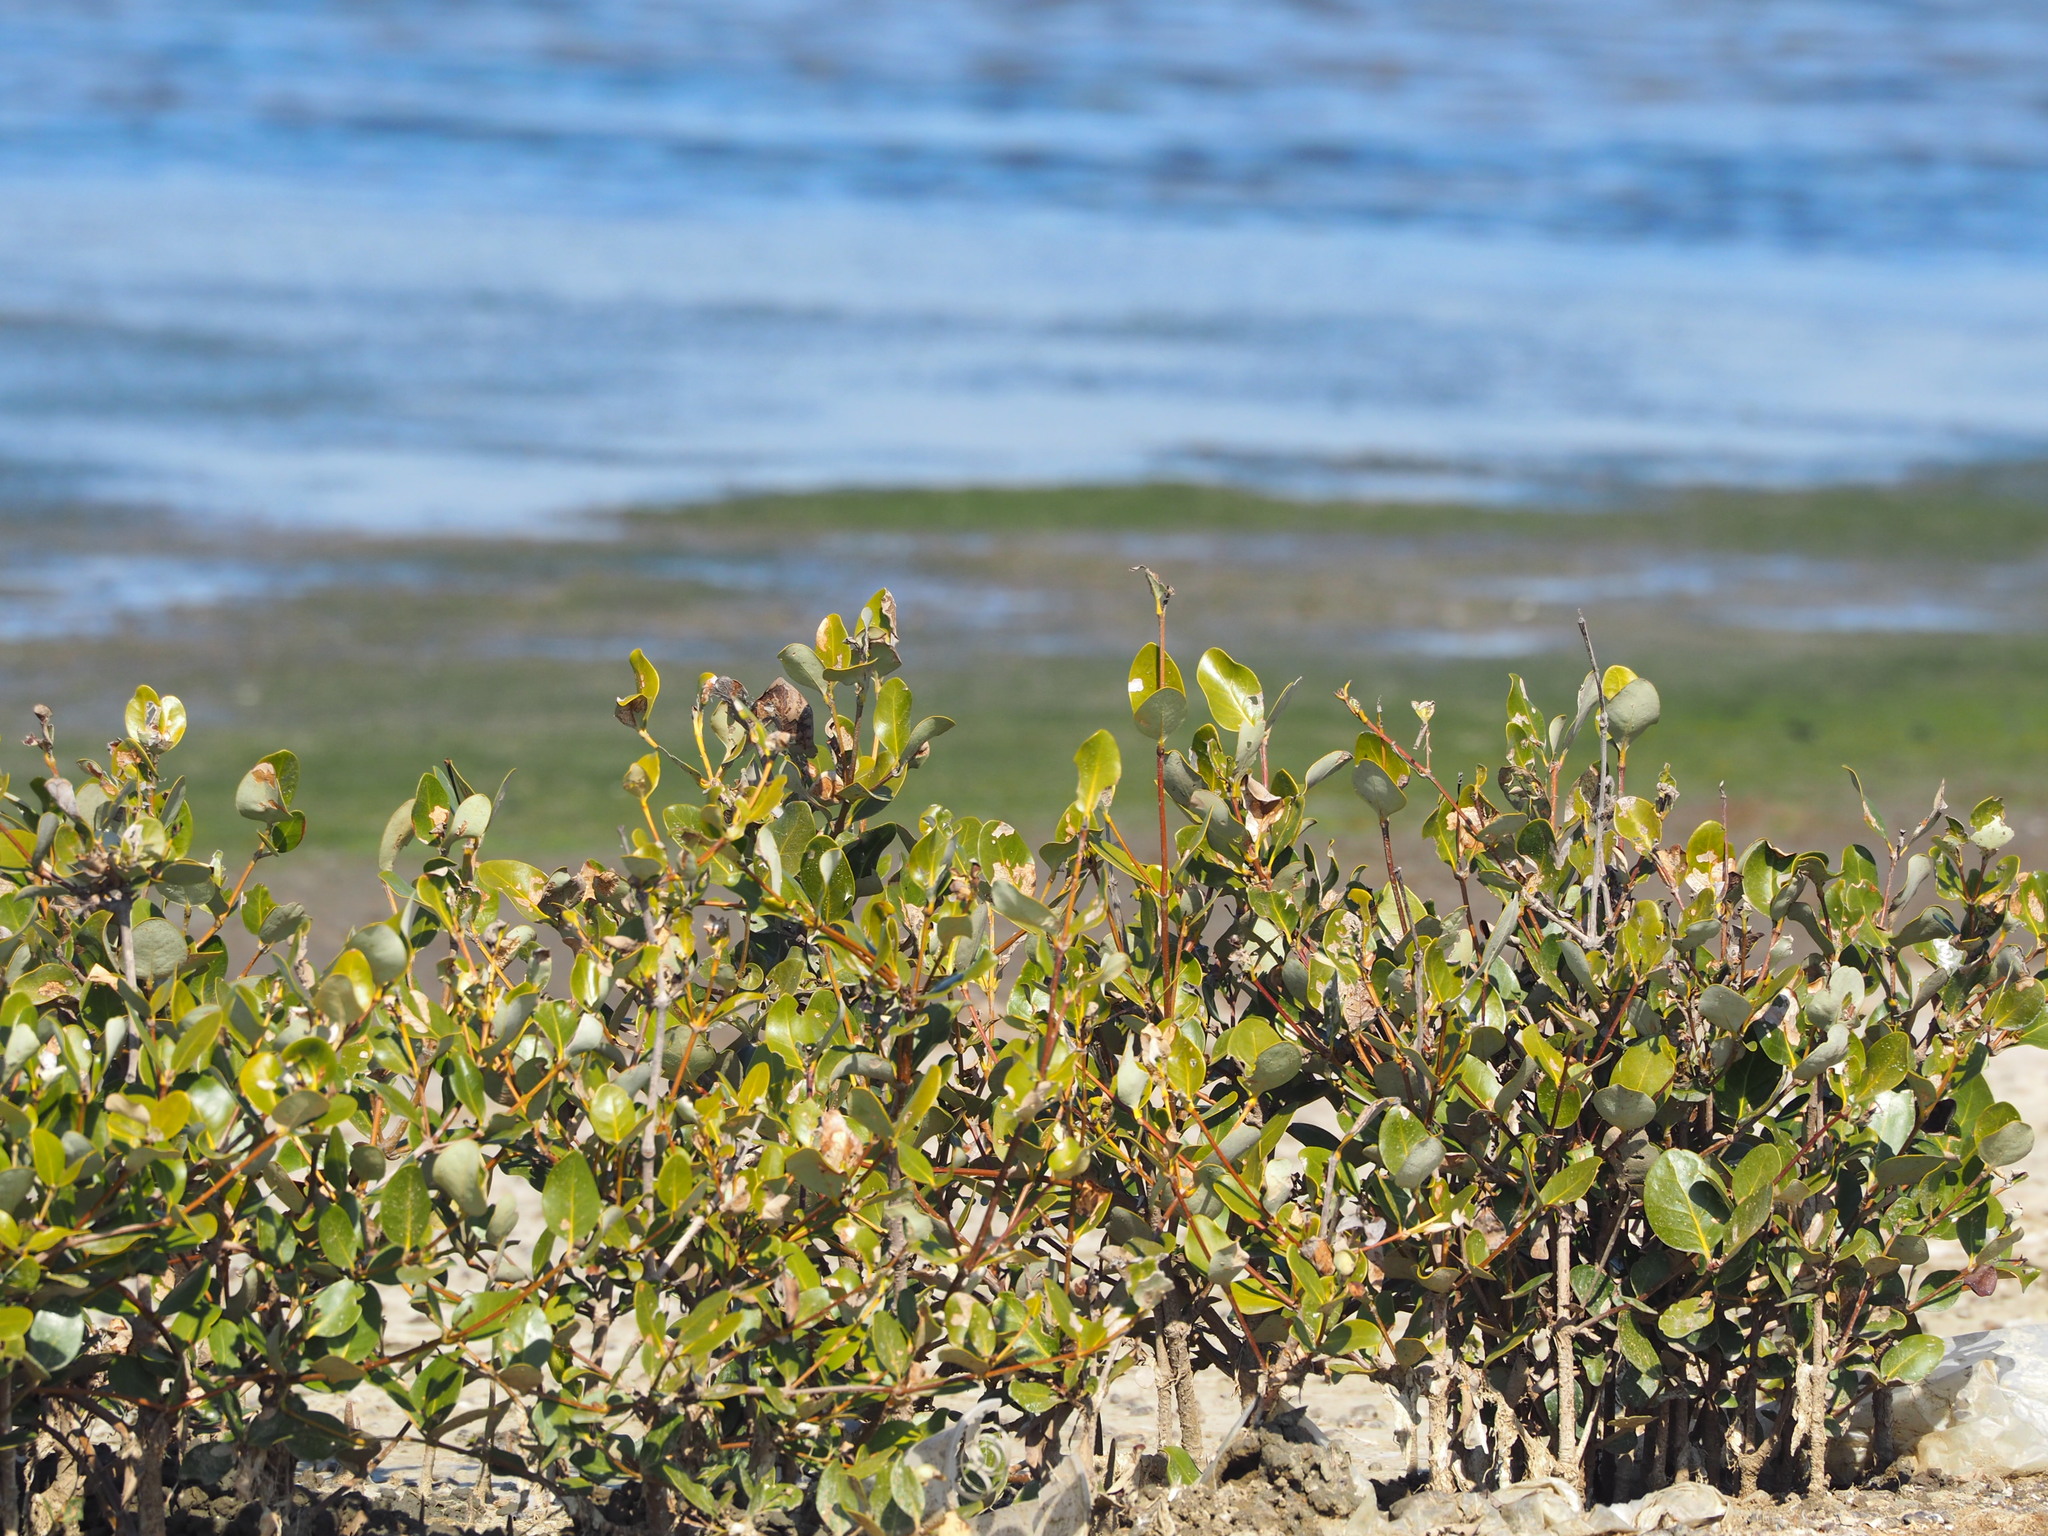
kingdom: Plantae
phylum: Tracheophyta
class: Magnoliopsida
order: Lamiales
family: Acanthaceae
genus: Avicennia
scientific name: Avicennia marina
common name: Gray mangrove
